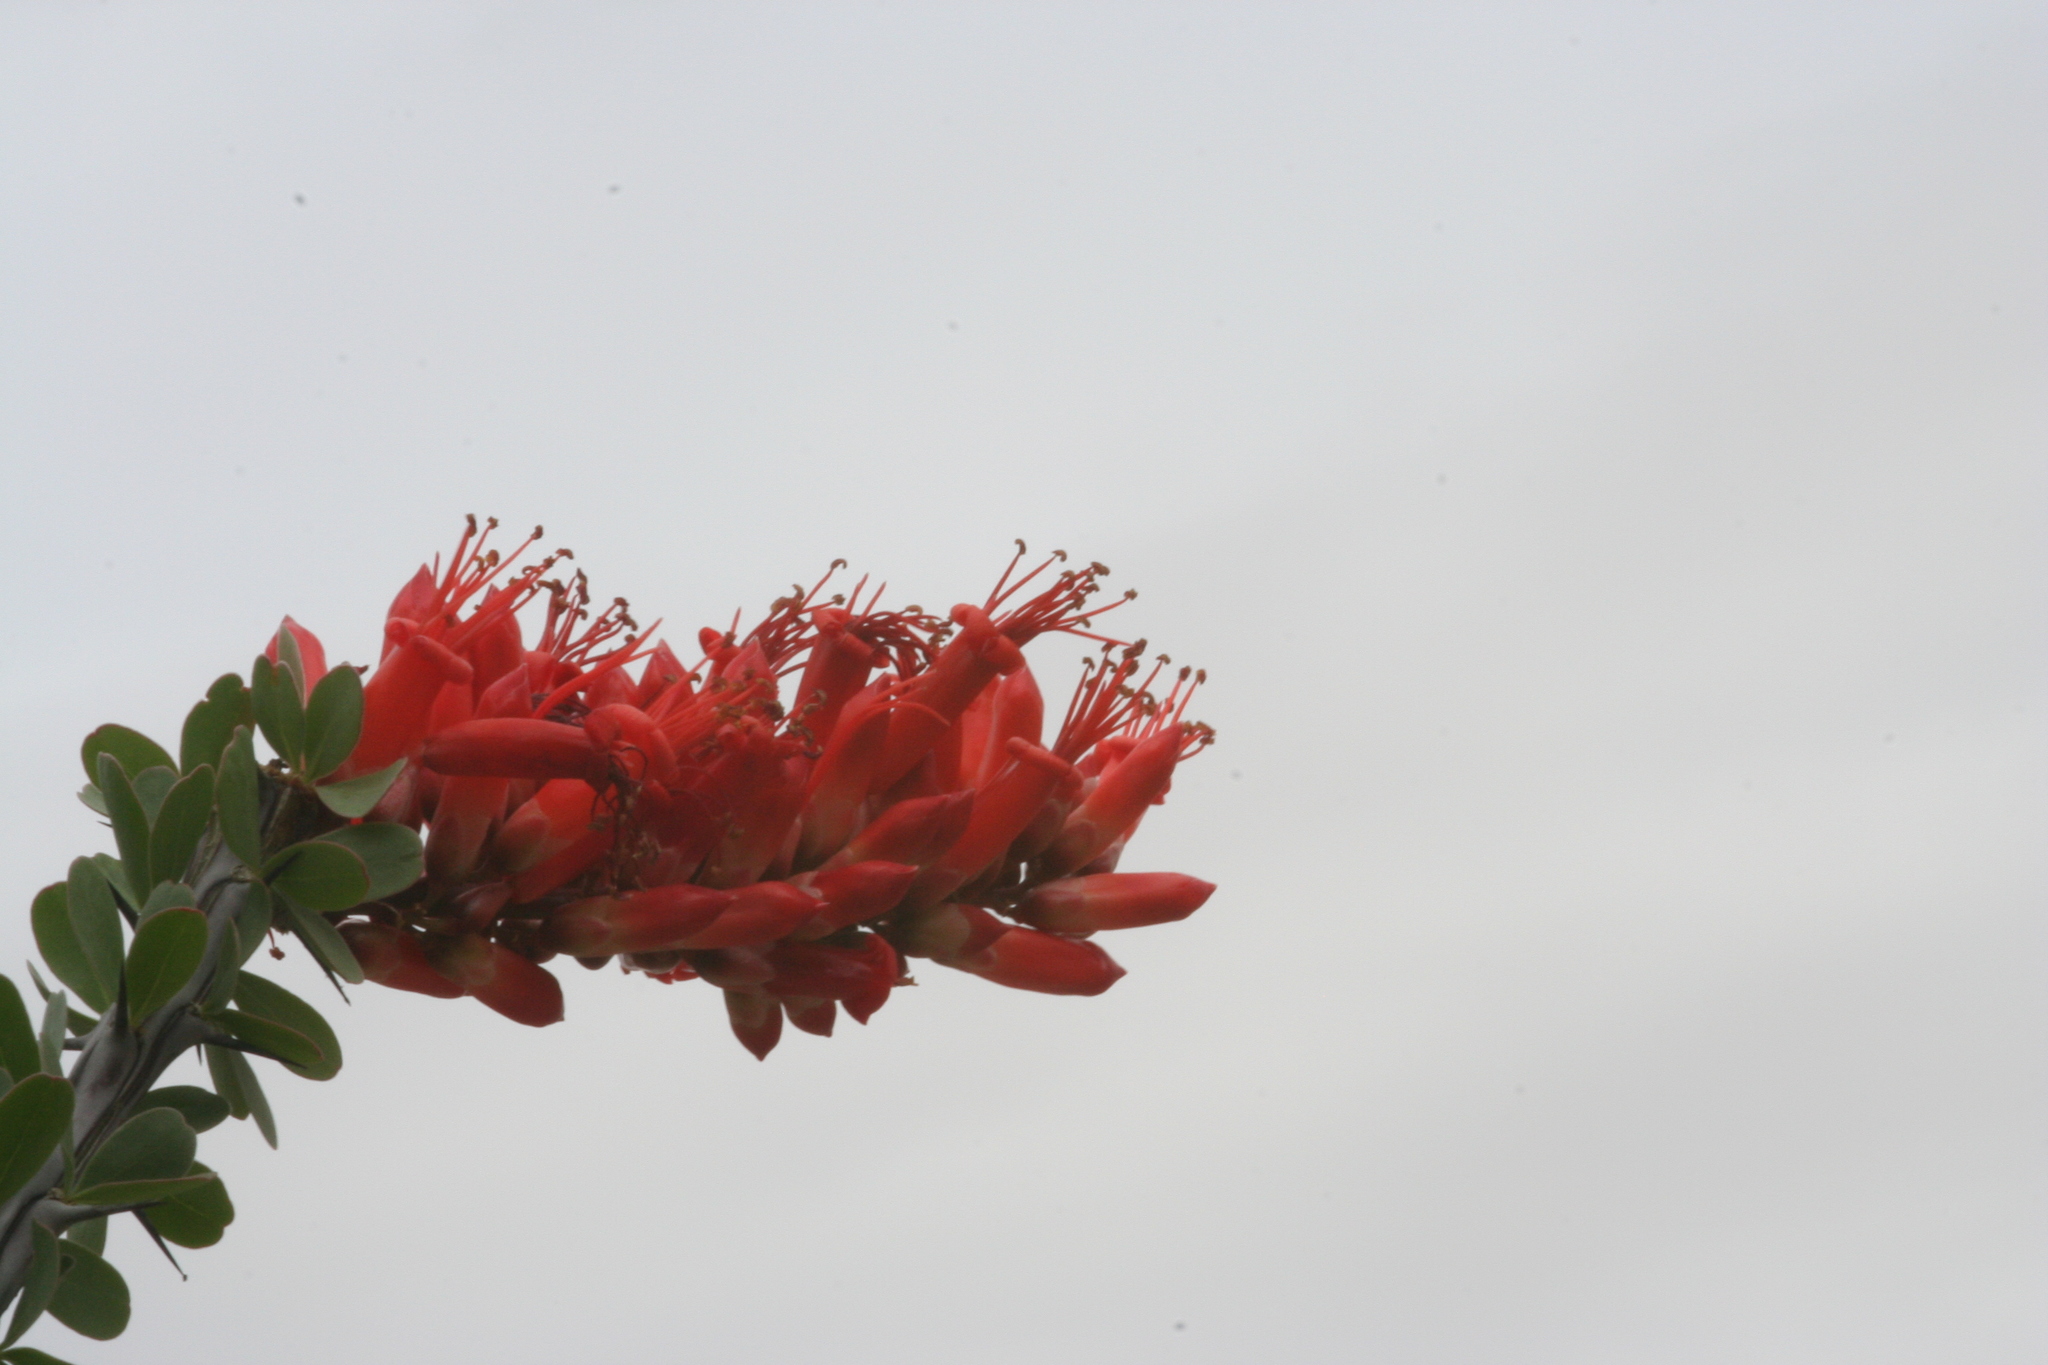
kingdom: Plantae
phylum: Tracheophyta
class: Magnoliopsida
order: Ericales
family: Fouquieriaceae
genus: Fouquieria
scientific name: Fouquieria splendens
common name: Vine-cactus
